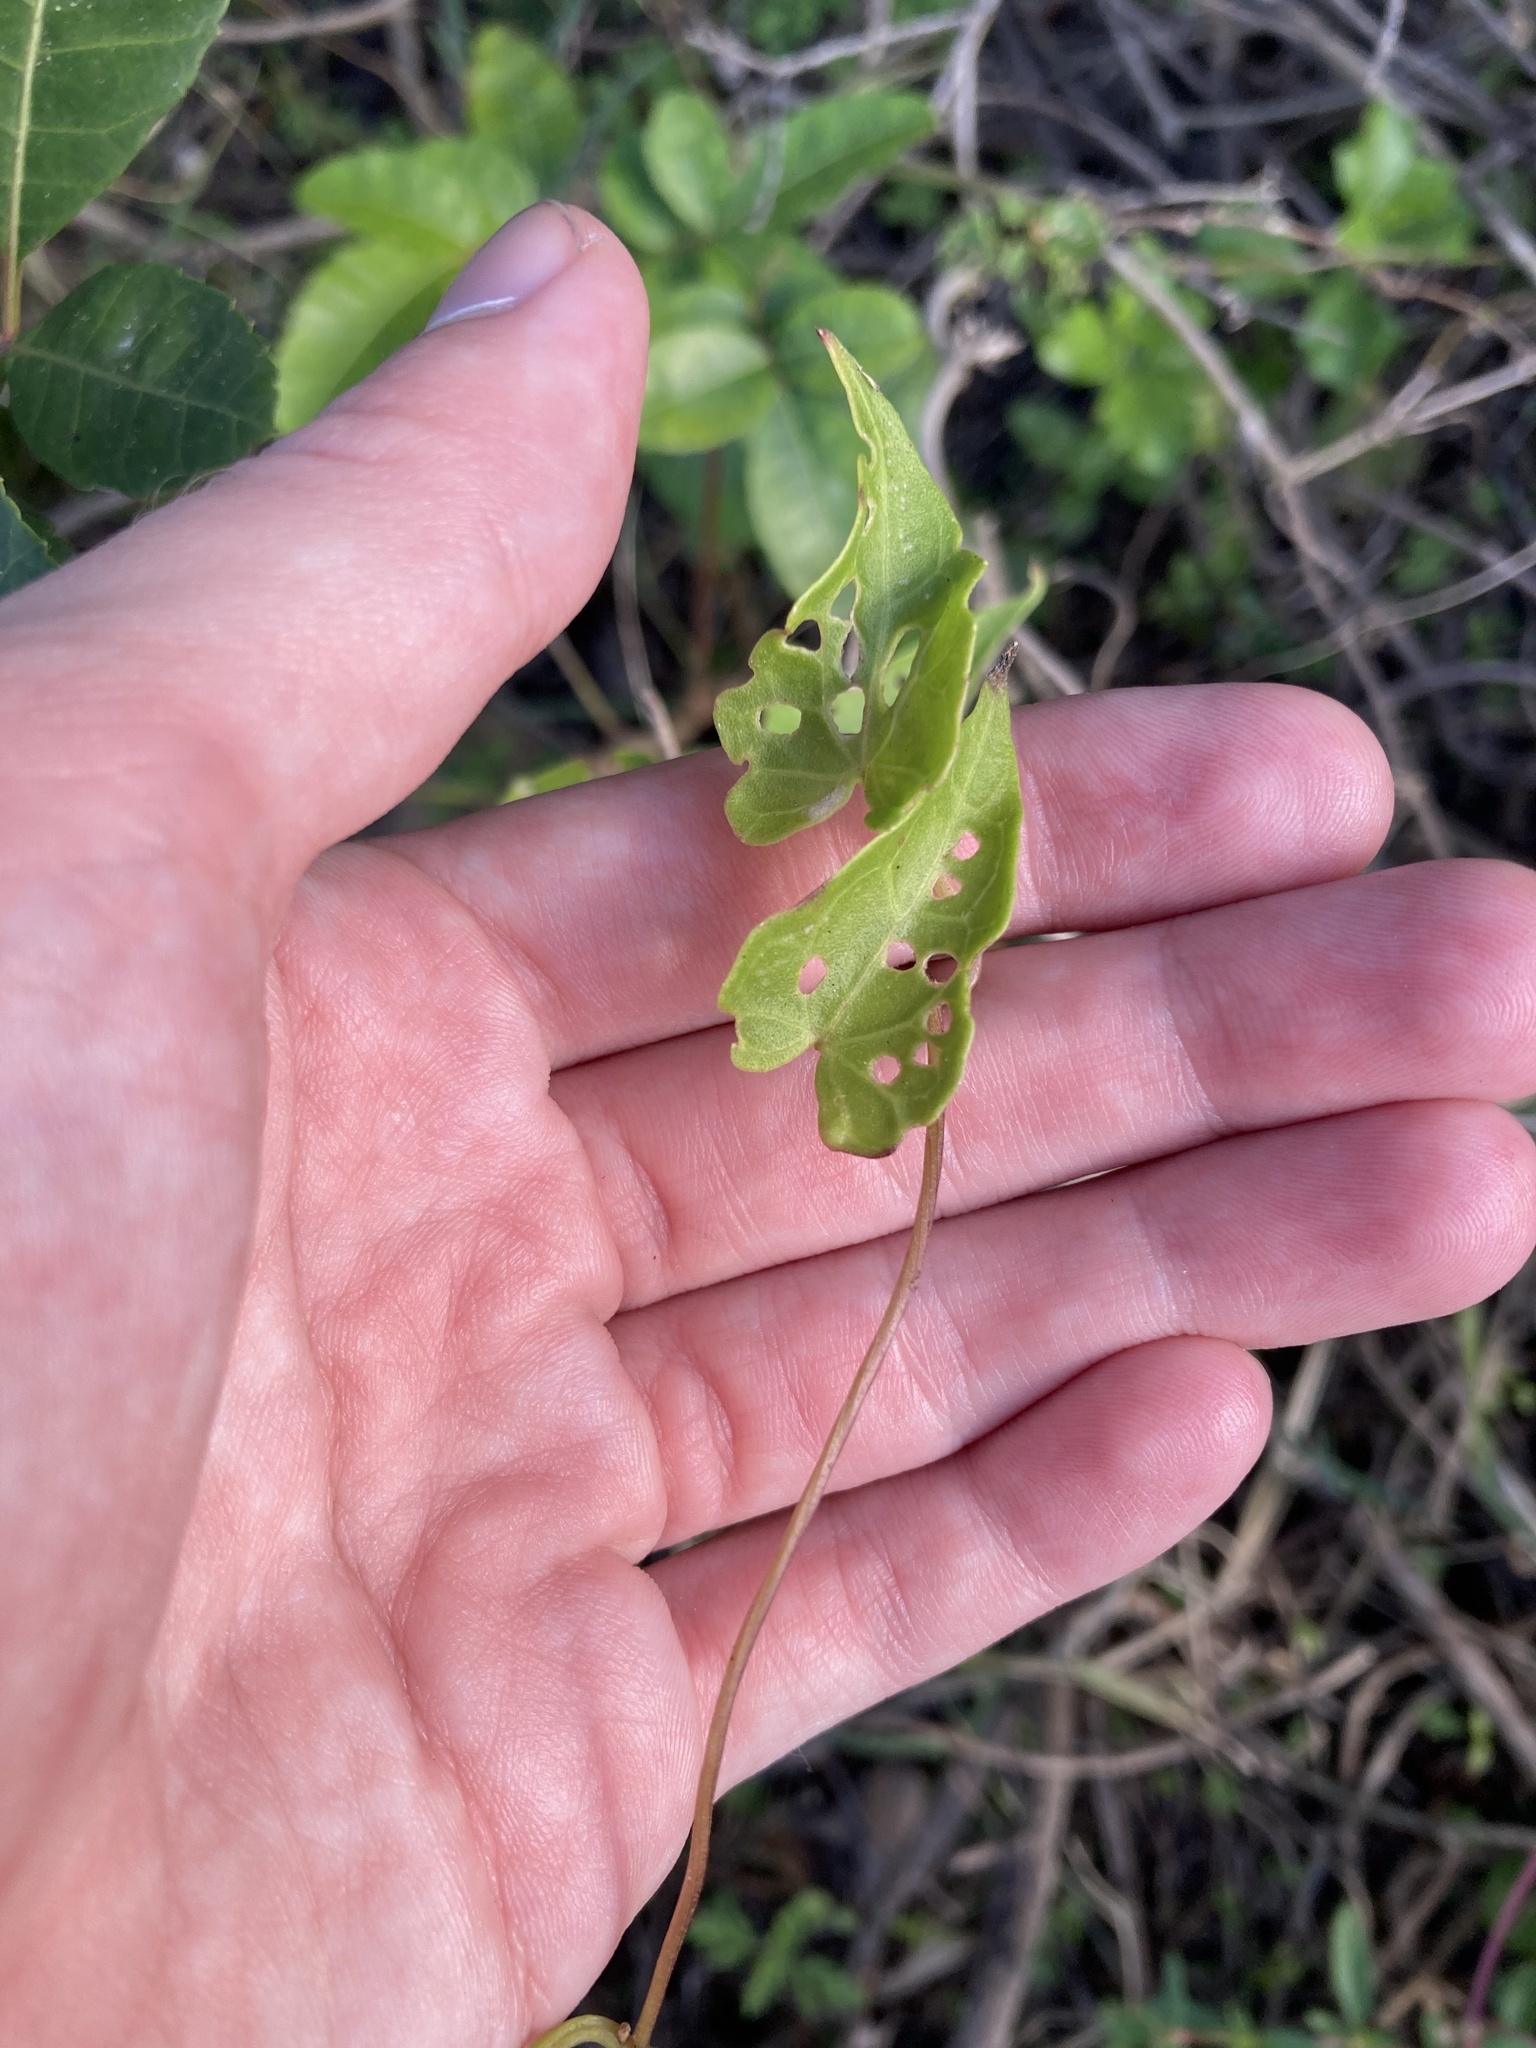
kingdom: Plantae
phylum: Tracheophyta
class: Magnoliopsida
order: Asterales
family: Asteraceae
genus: Mikania
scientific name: Mikania scandens
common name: Climbing hempvine
